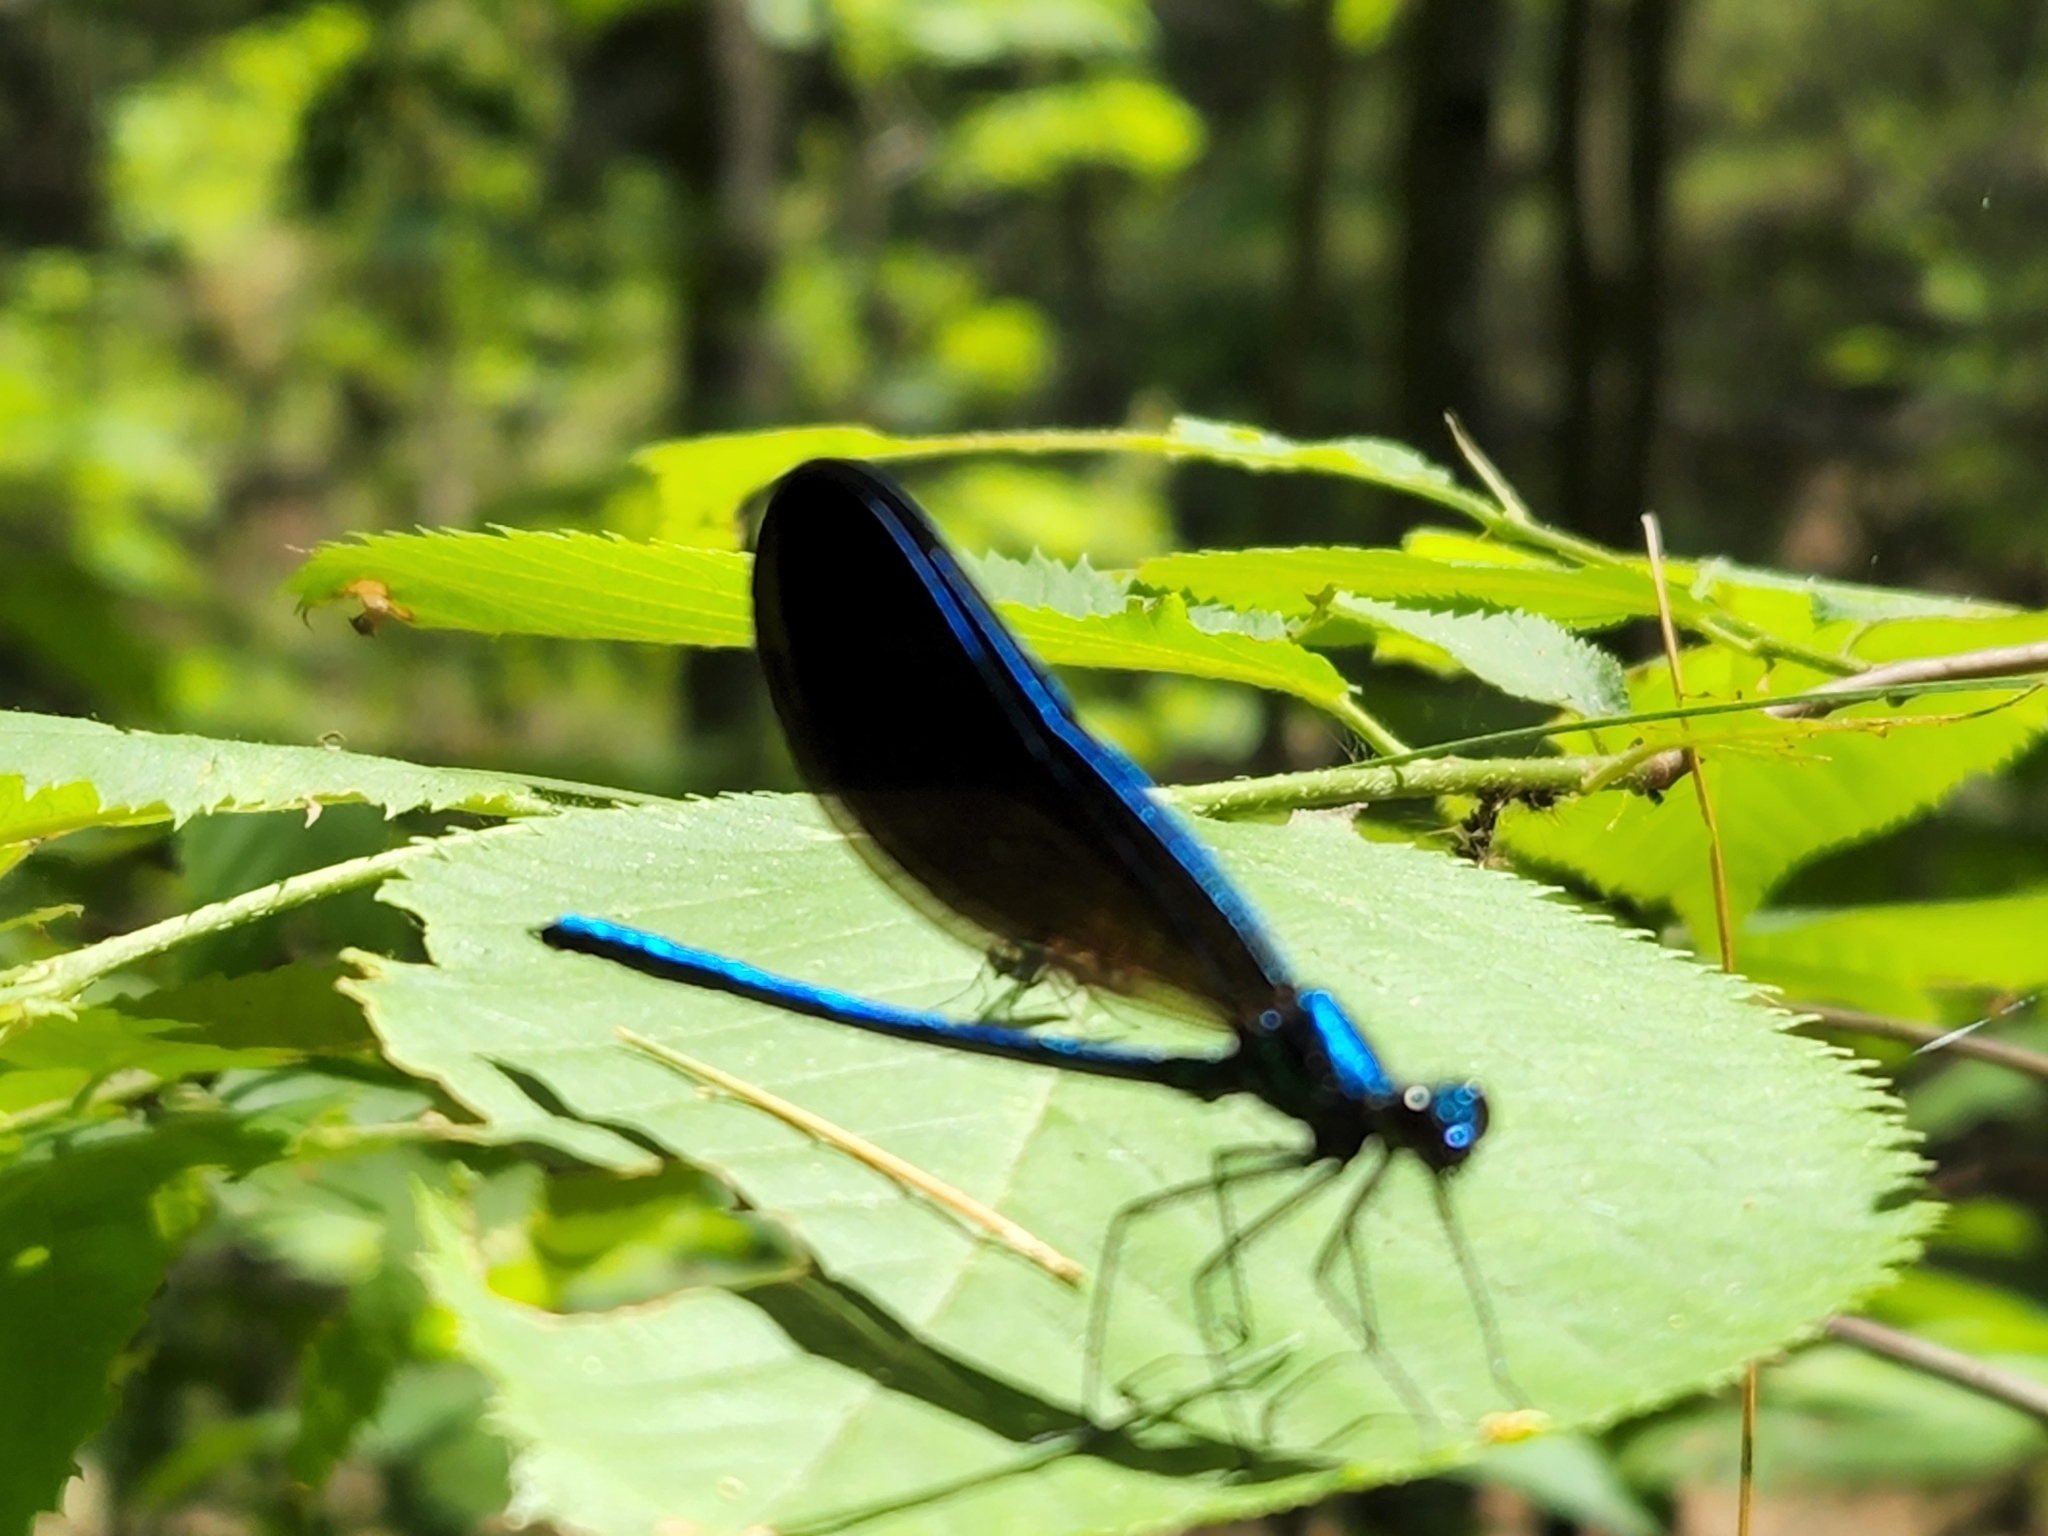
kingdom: Animalia
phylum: Arthropoda
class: Insecta
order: Odonata
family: Calopterygidae
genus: Calopteryx
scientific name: Calopteryx maculata
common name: Ebony jewelwing
